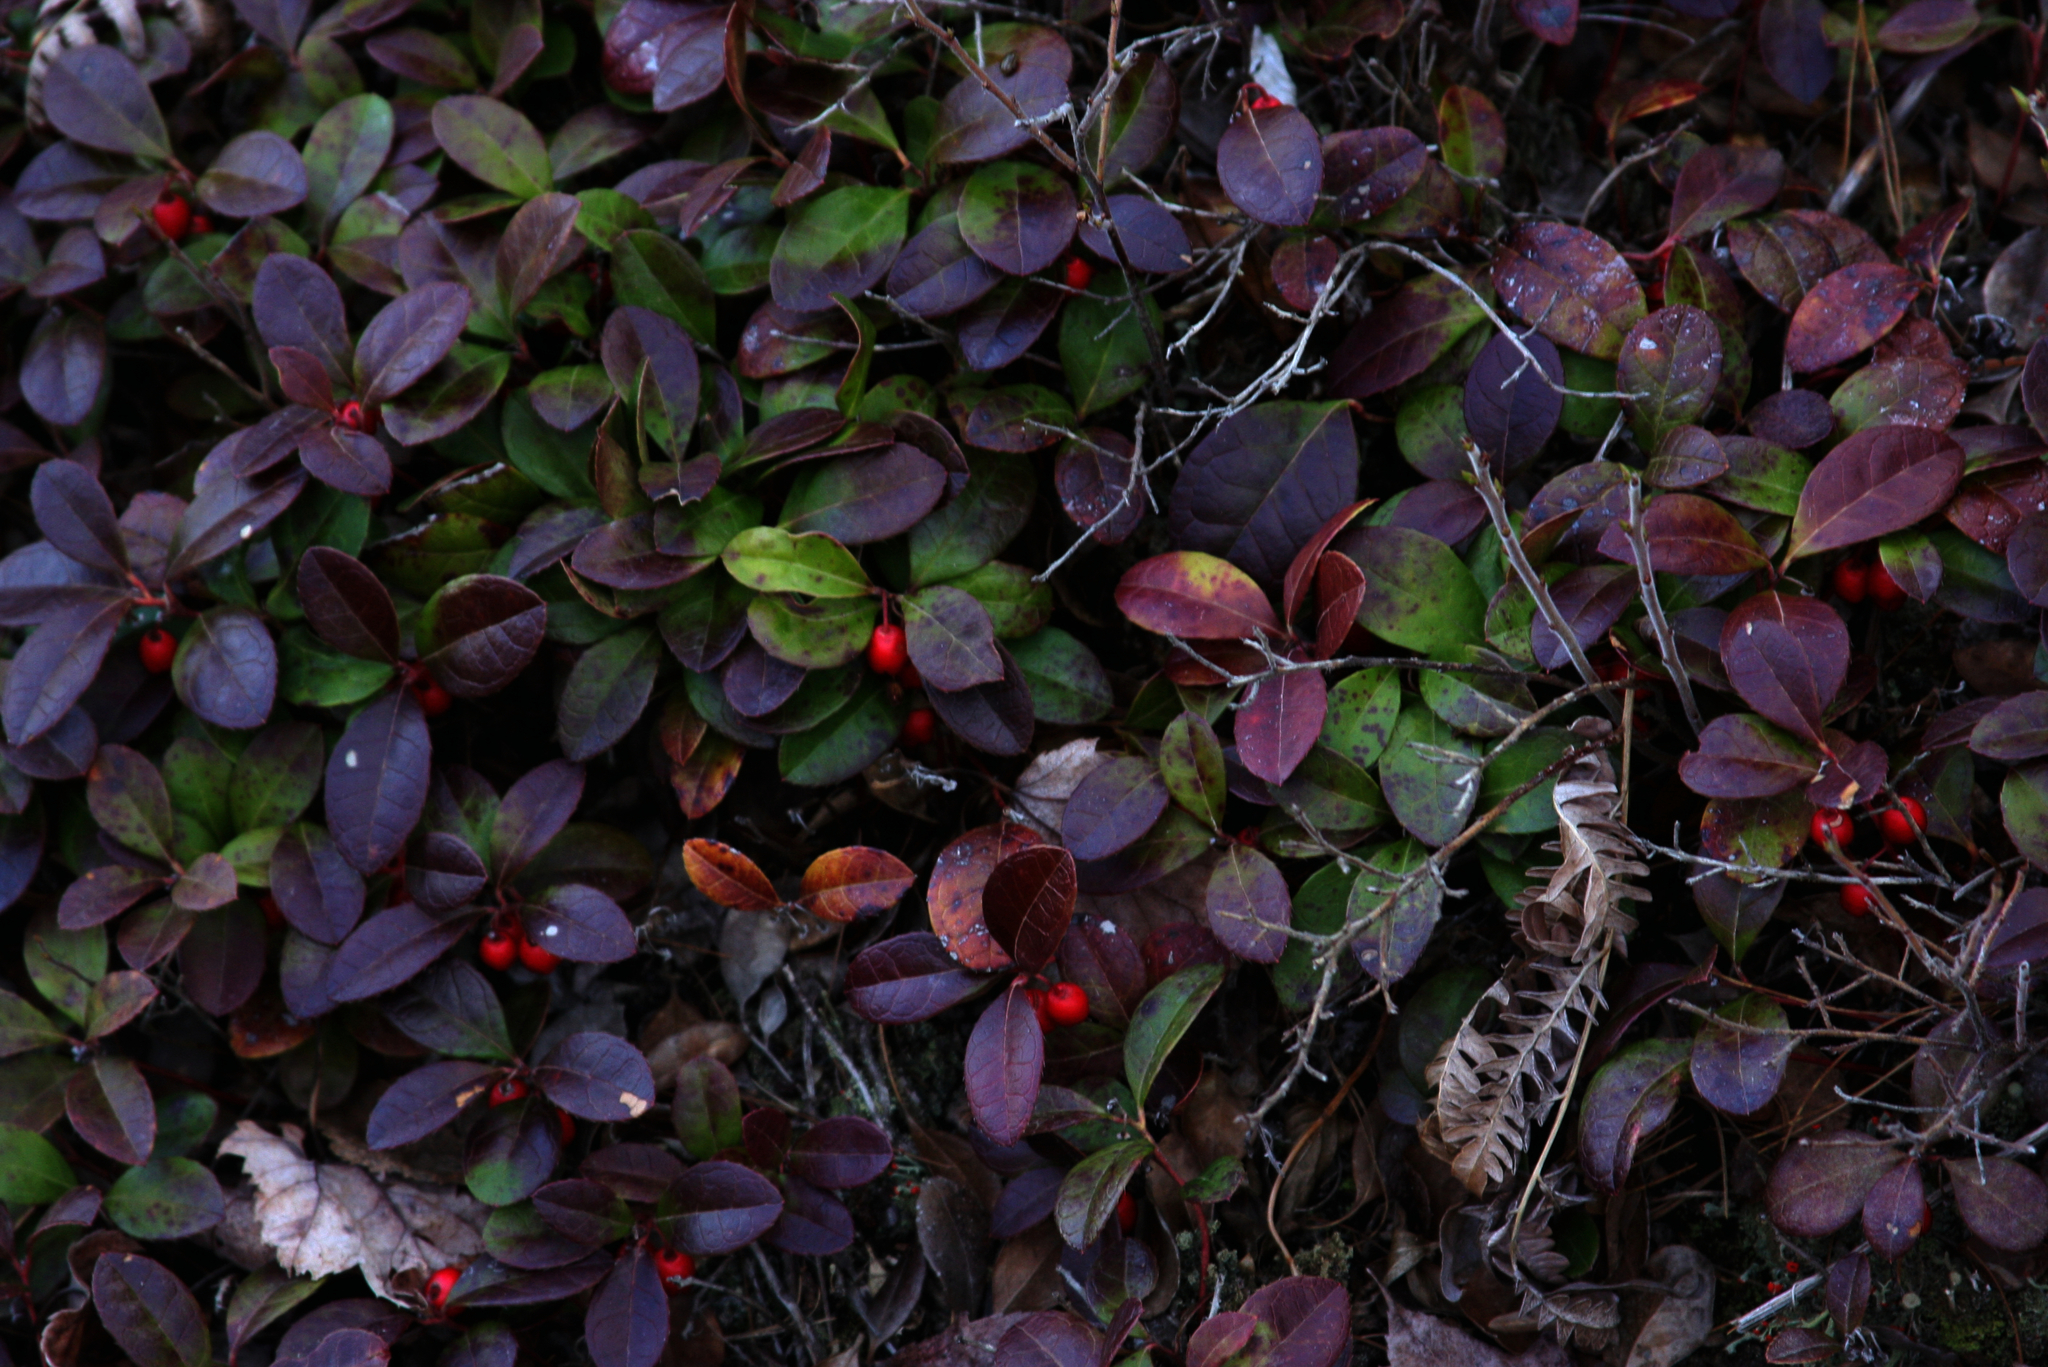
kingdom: Plantae
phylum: Tracheophyta
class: Magnoliopsida
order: Ericales
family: Ericaceae
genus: Gaultheria
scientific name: Gaultheria procumbens
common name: Checkerberry
